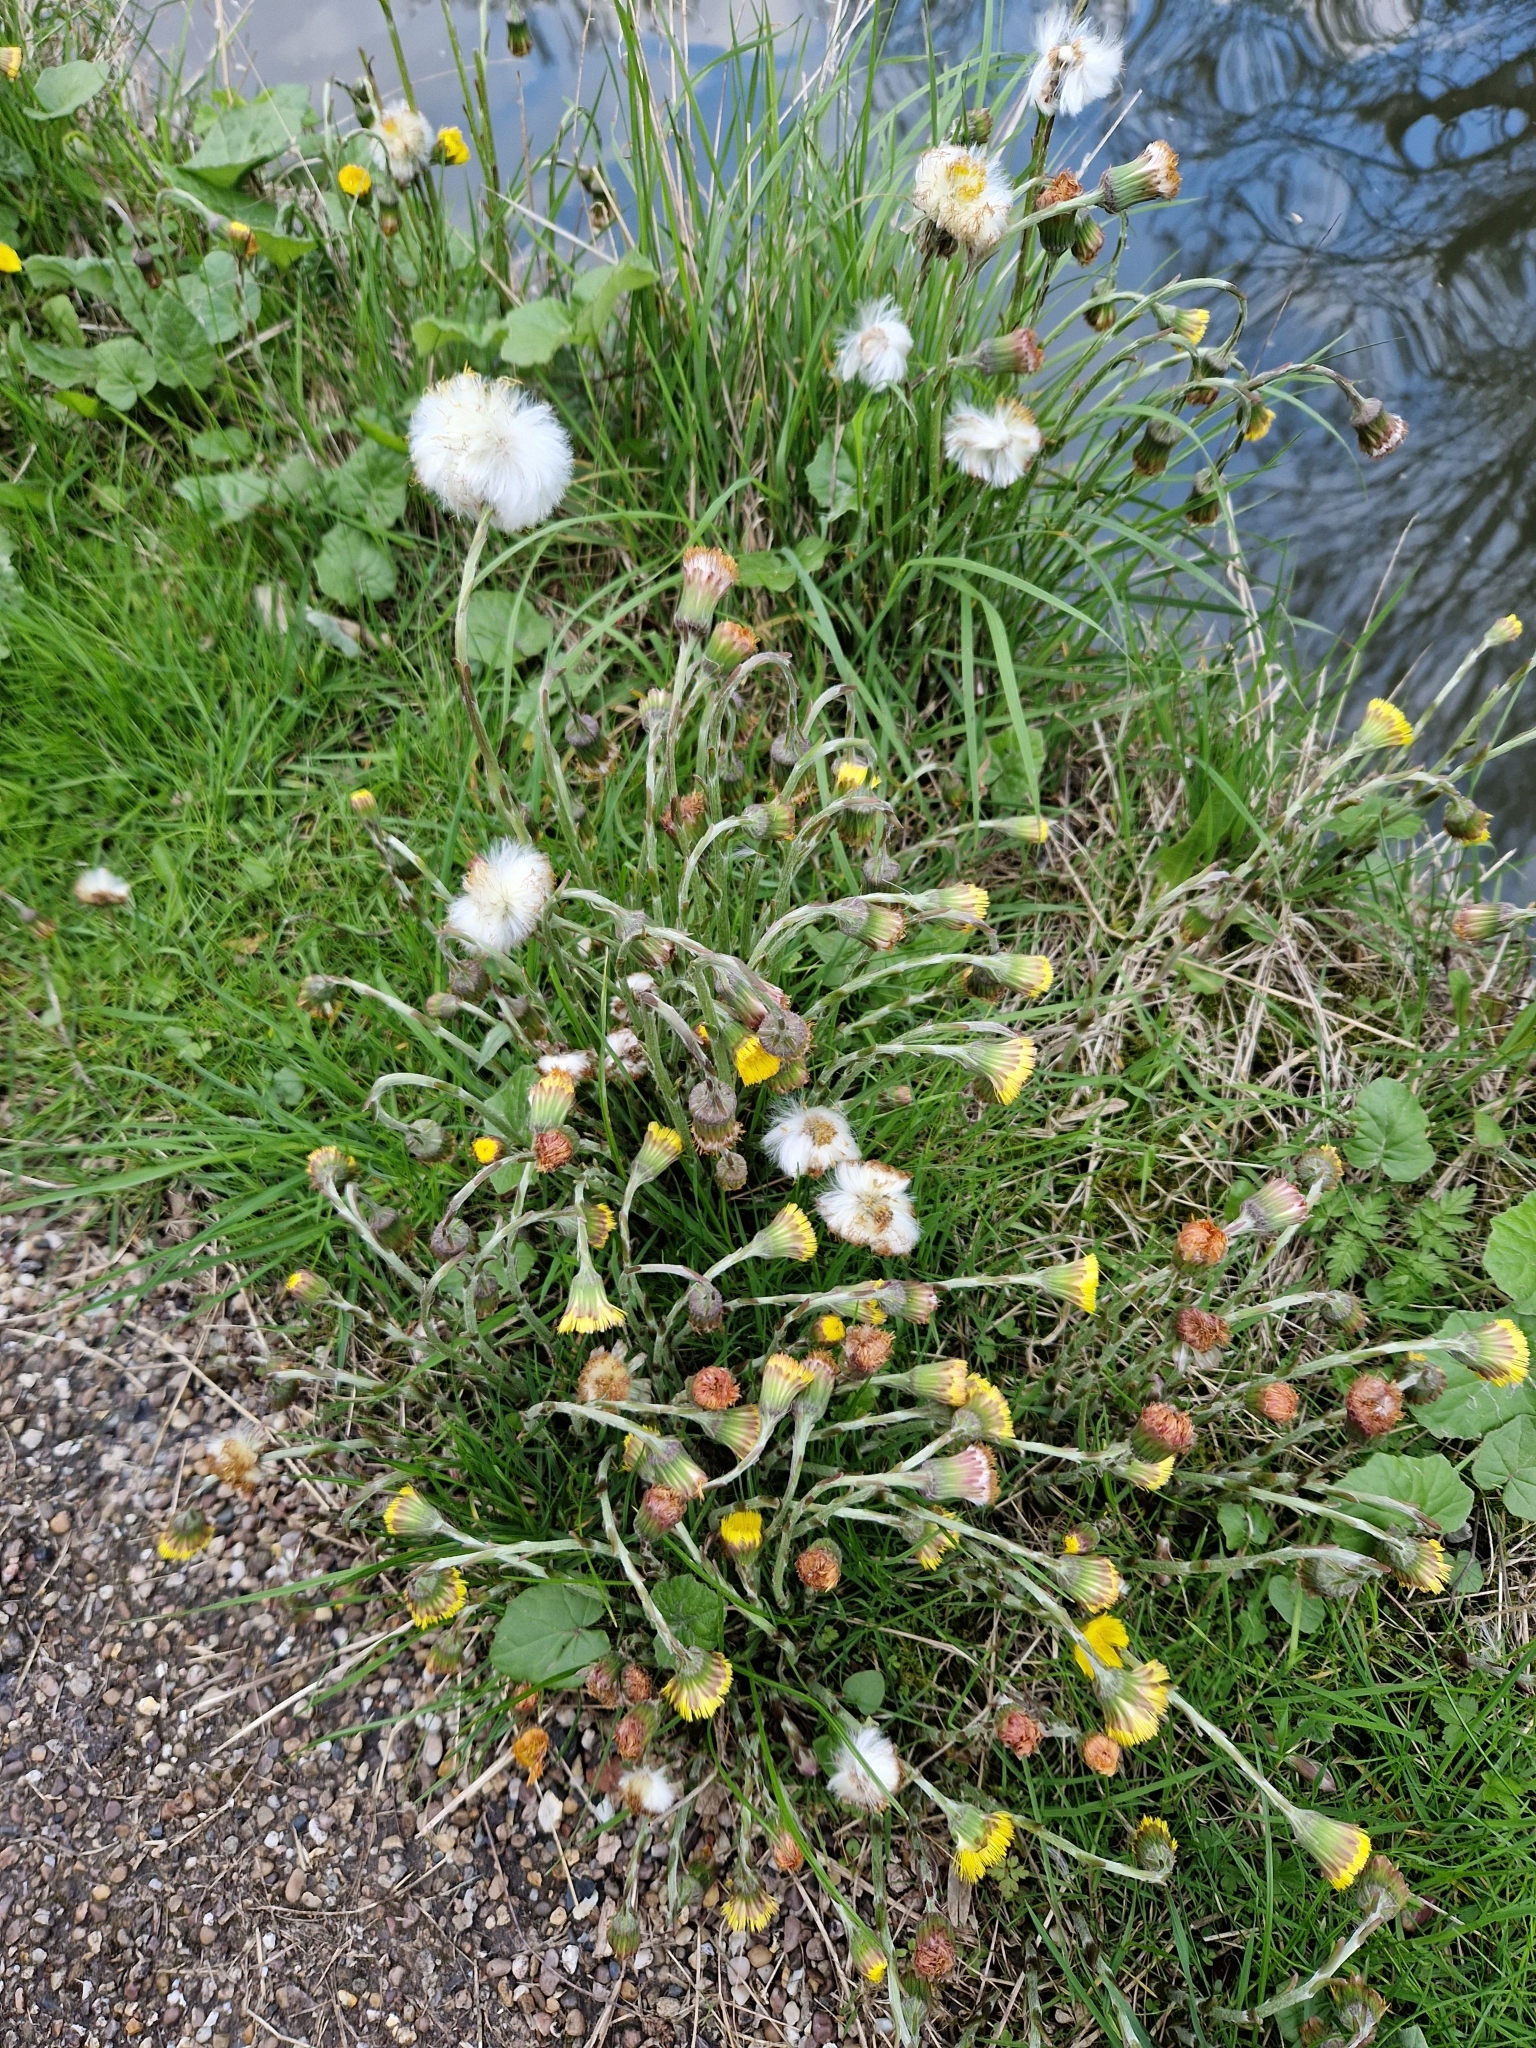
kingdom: Plantae
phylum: Tracheophyta
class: Magnoliopsida
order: Asterales
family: Asteraceae
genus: Tussilago
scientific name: Tussilago farfara
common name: Coltsfoot
